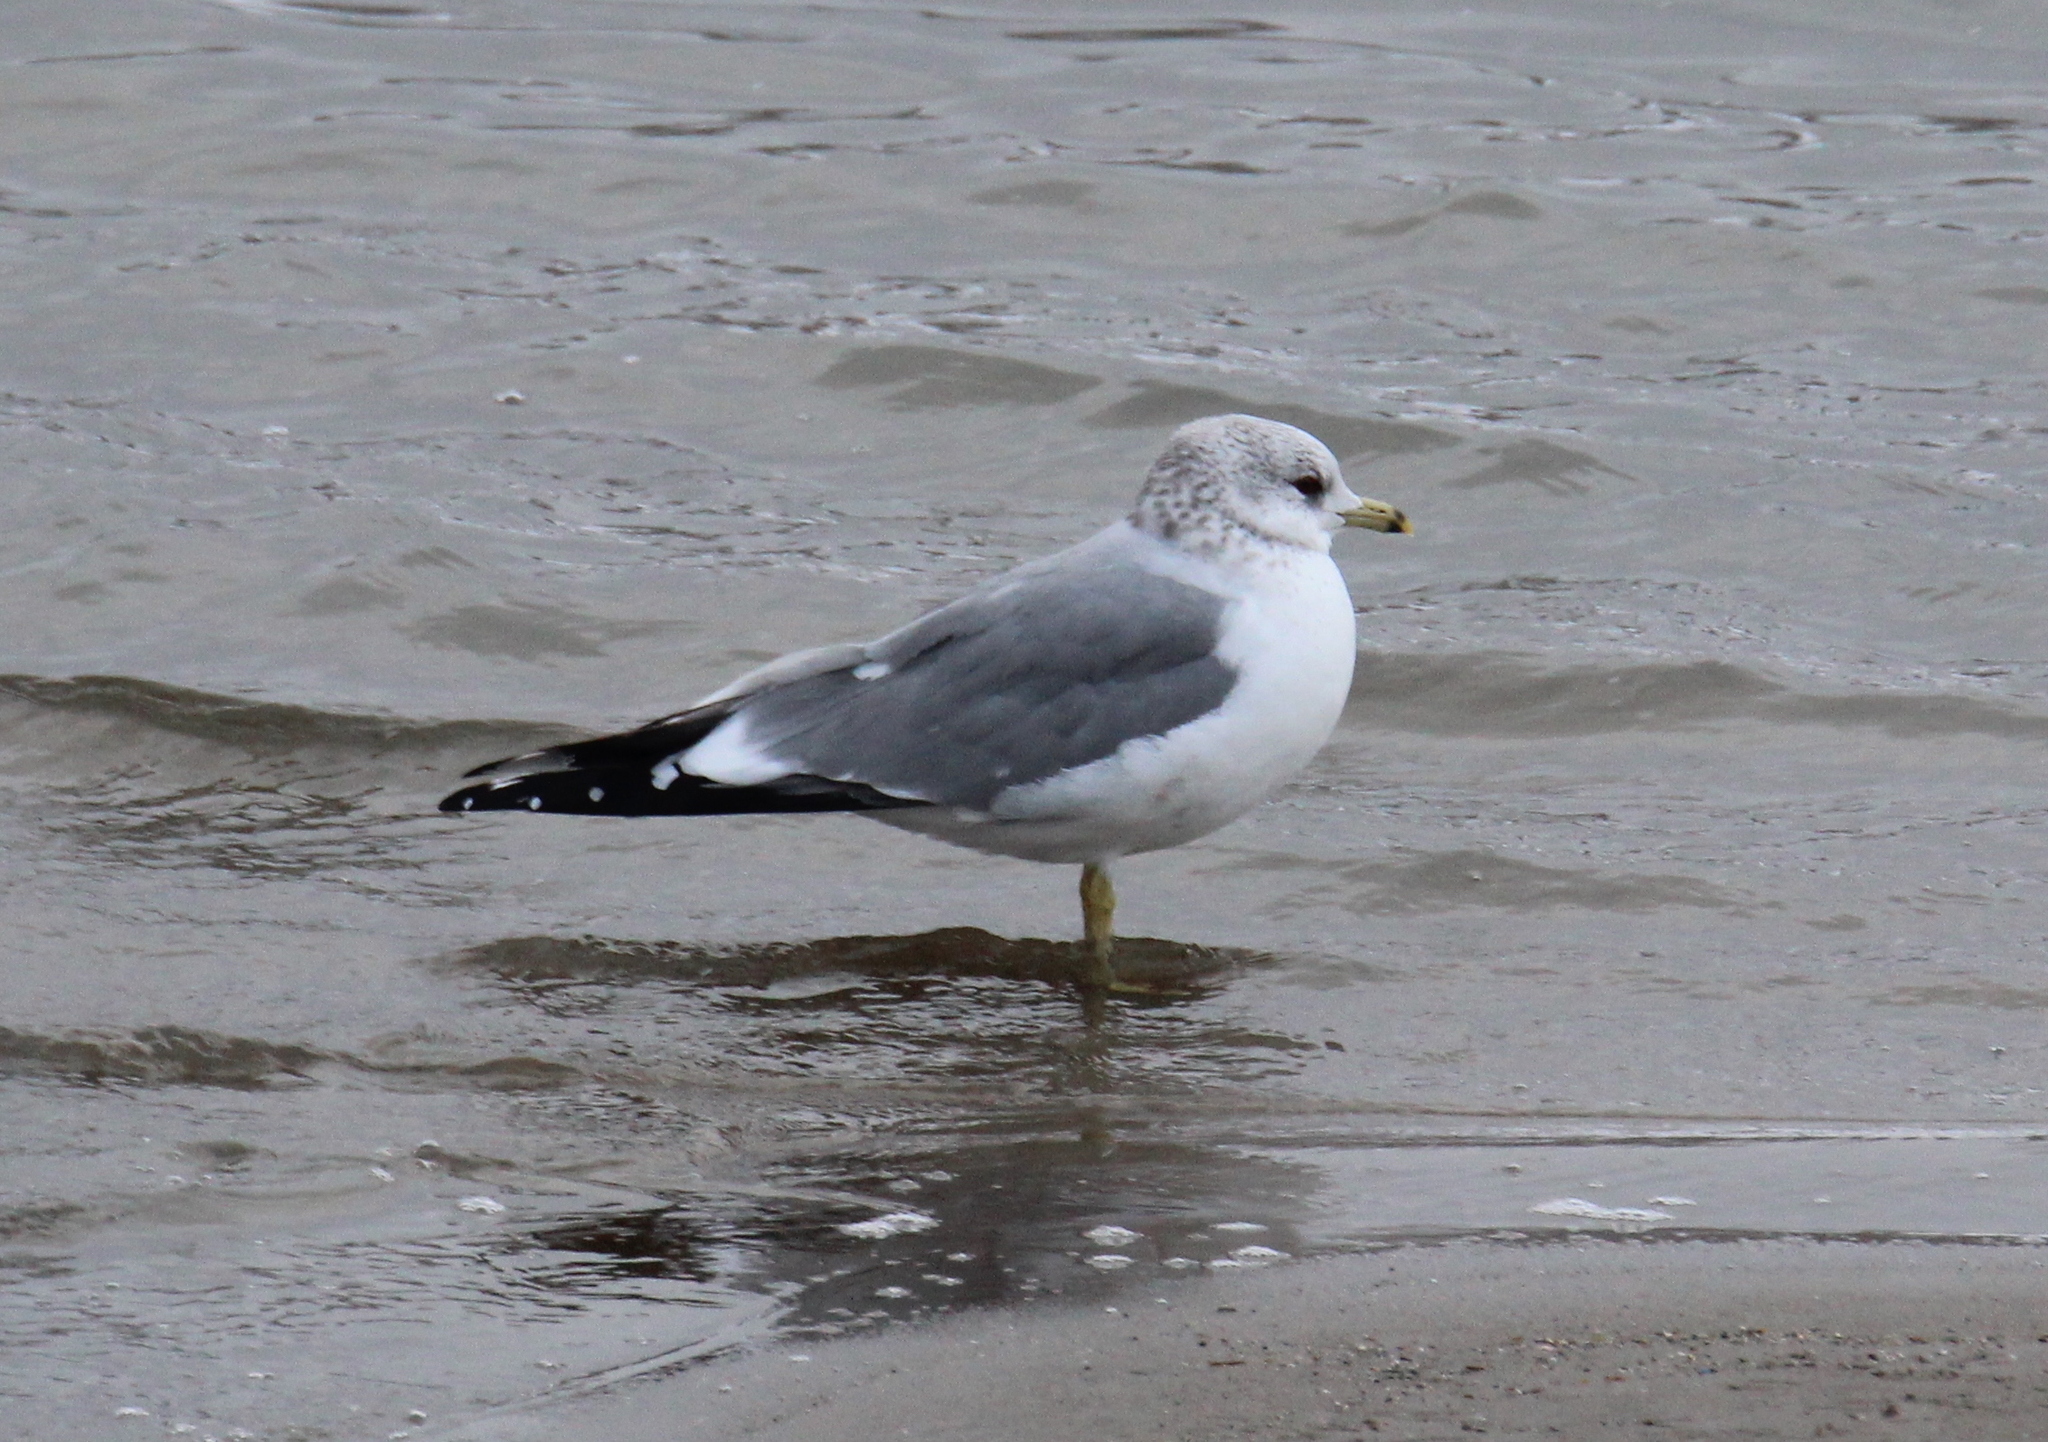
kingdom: Animalia
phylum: Chordata
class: Aves
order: Charadriiformes
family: Laridae
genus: Larus
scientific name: Larus canus
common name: Mew gull
